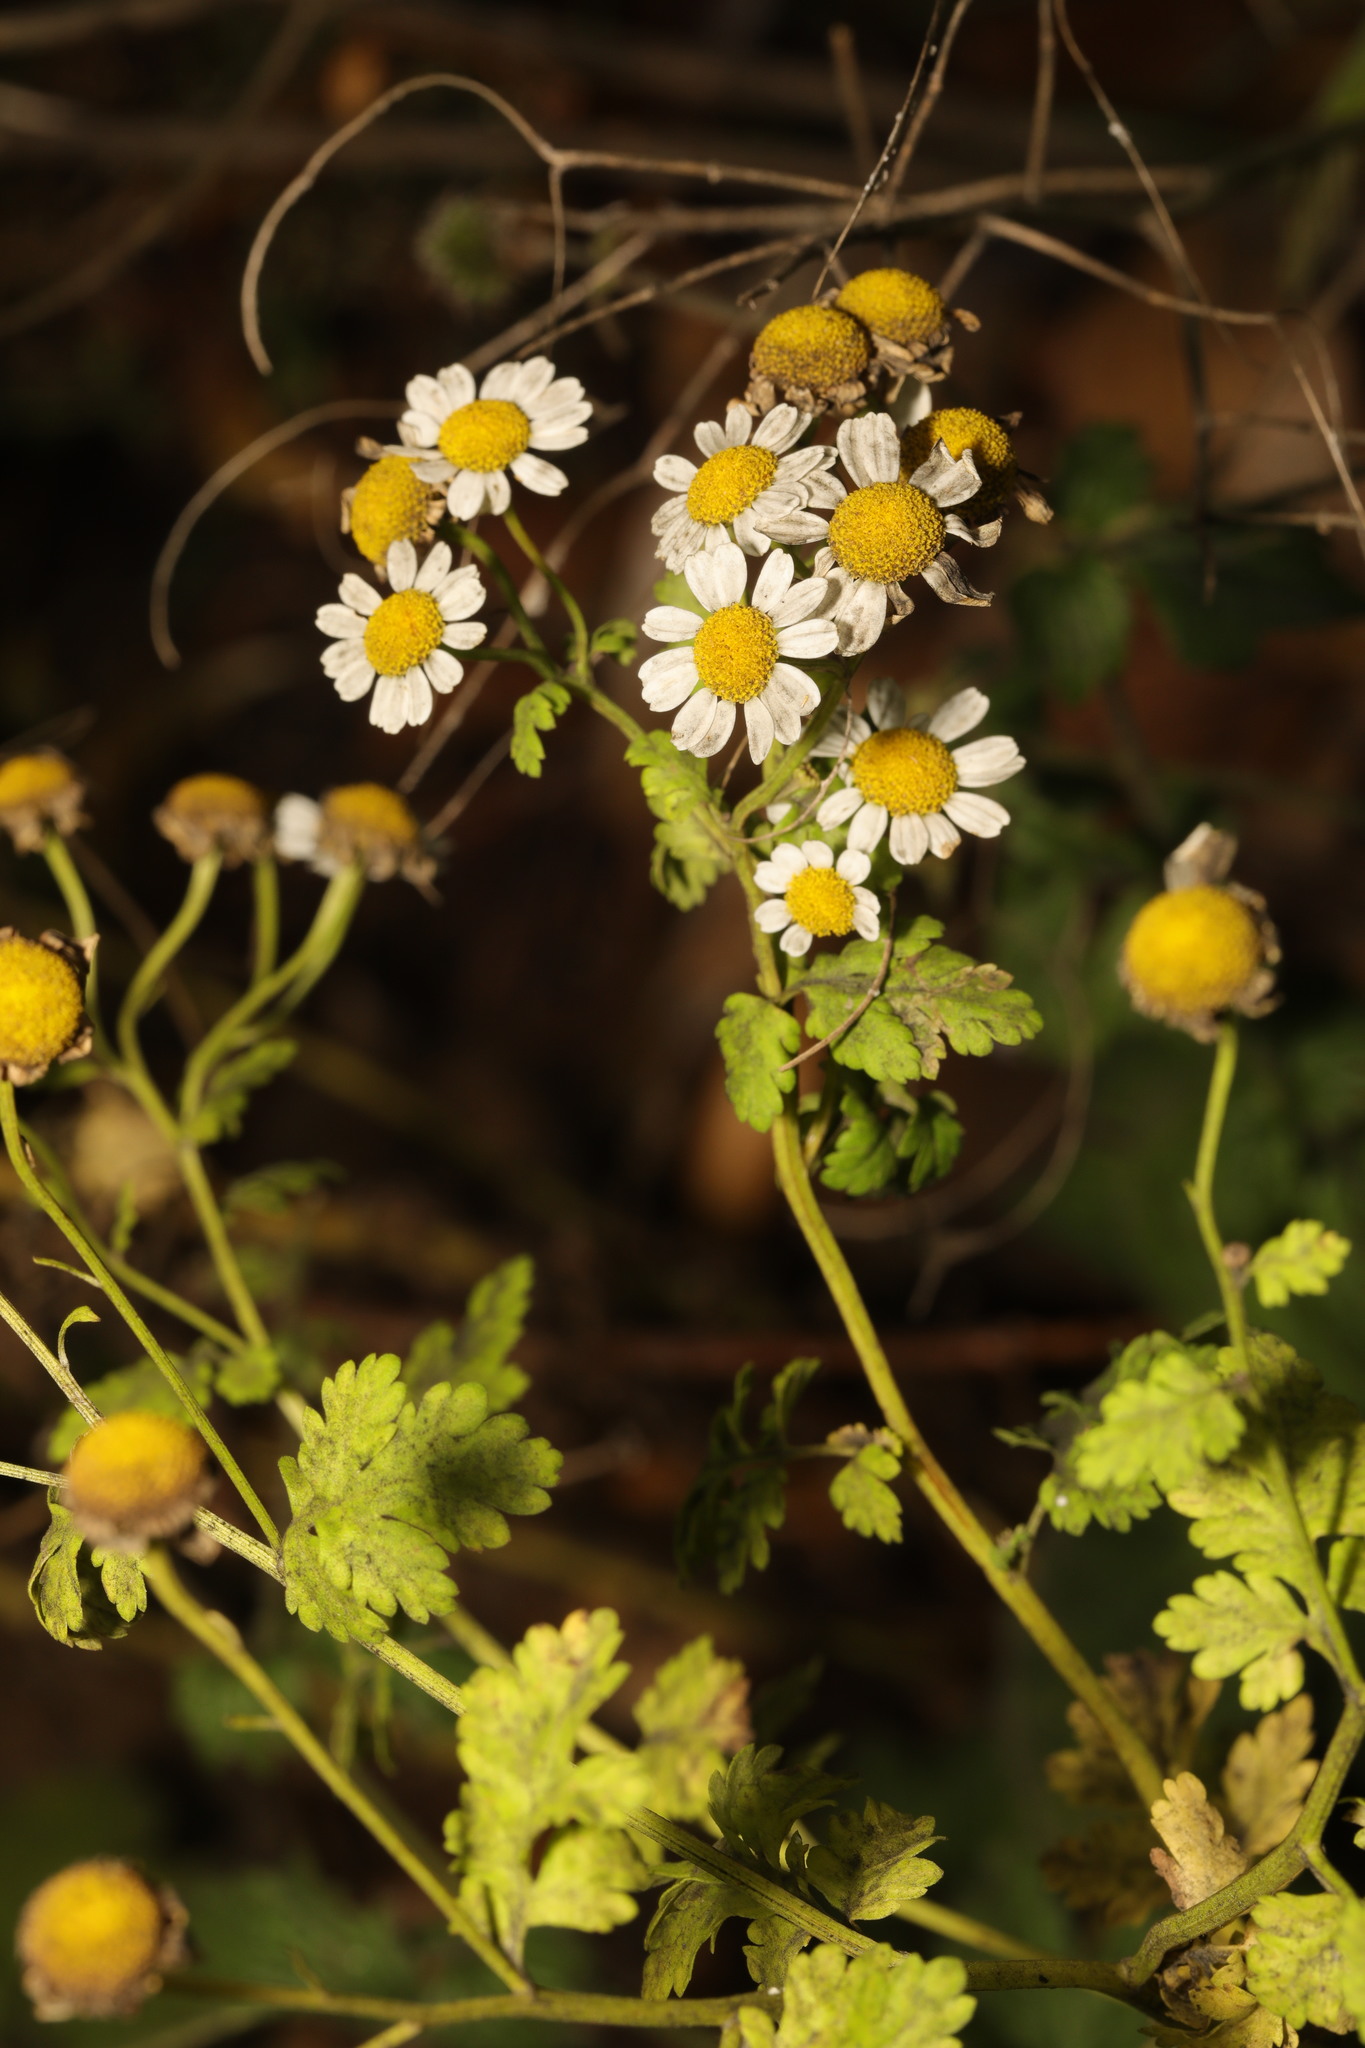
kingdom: Plantae
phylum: Tracheophyta
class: Magnoliopsida
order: Asterales
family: Asteraceae
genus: Tanacetum
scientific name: Tanacetum parthenium
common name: Feverfew
